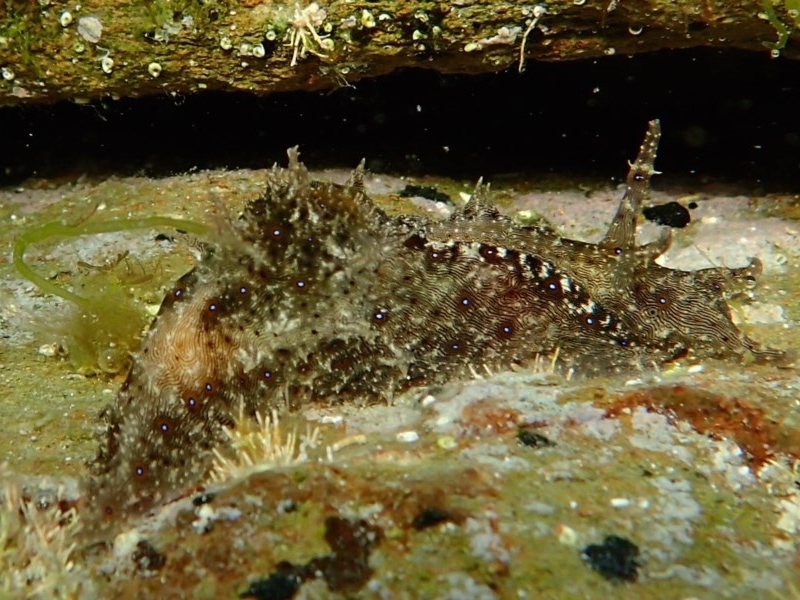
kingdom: Animalia
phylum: Mollusca
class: Gastropoda
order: Aplysiida
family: Aplysiidae
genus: Stylocheilus
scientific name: Stylocheilus striatus
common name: Striated seahare
